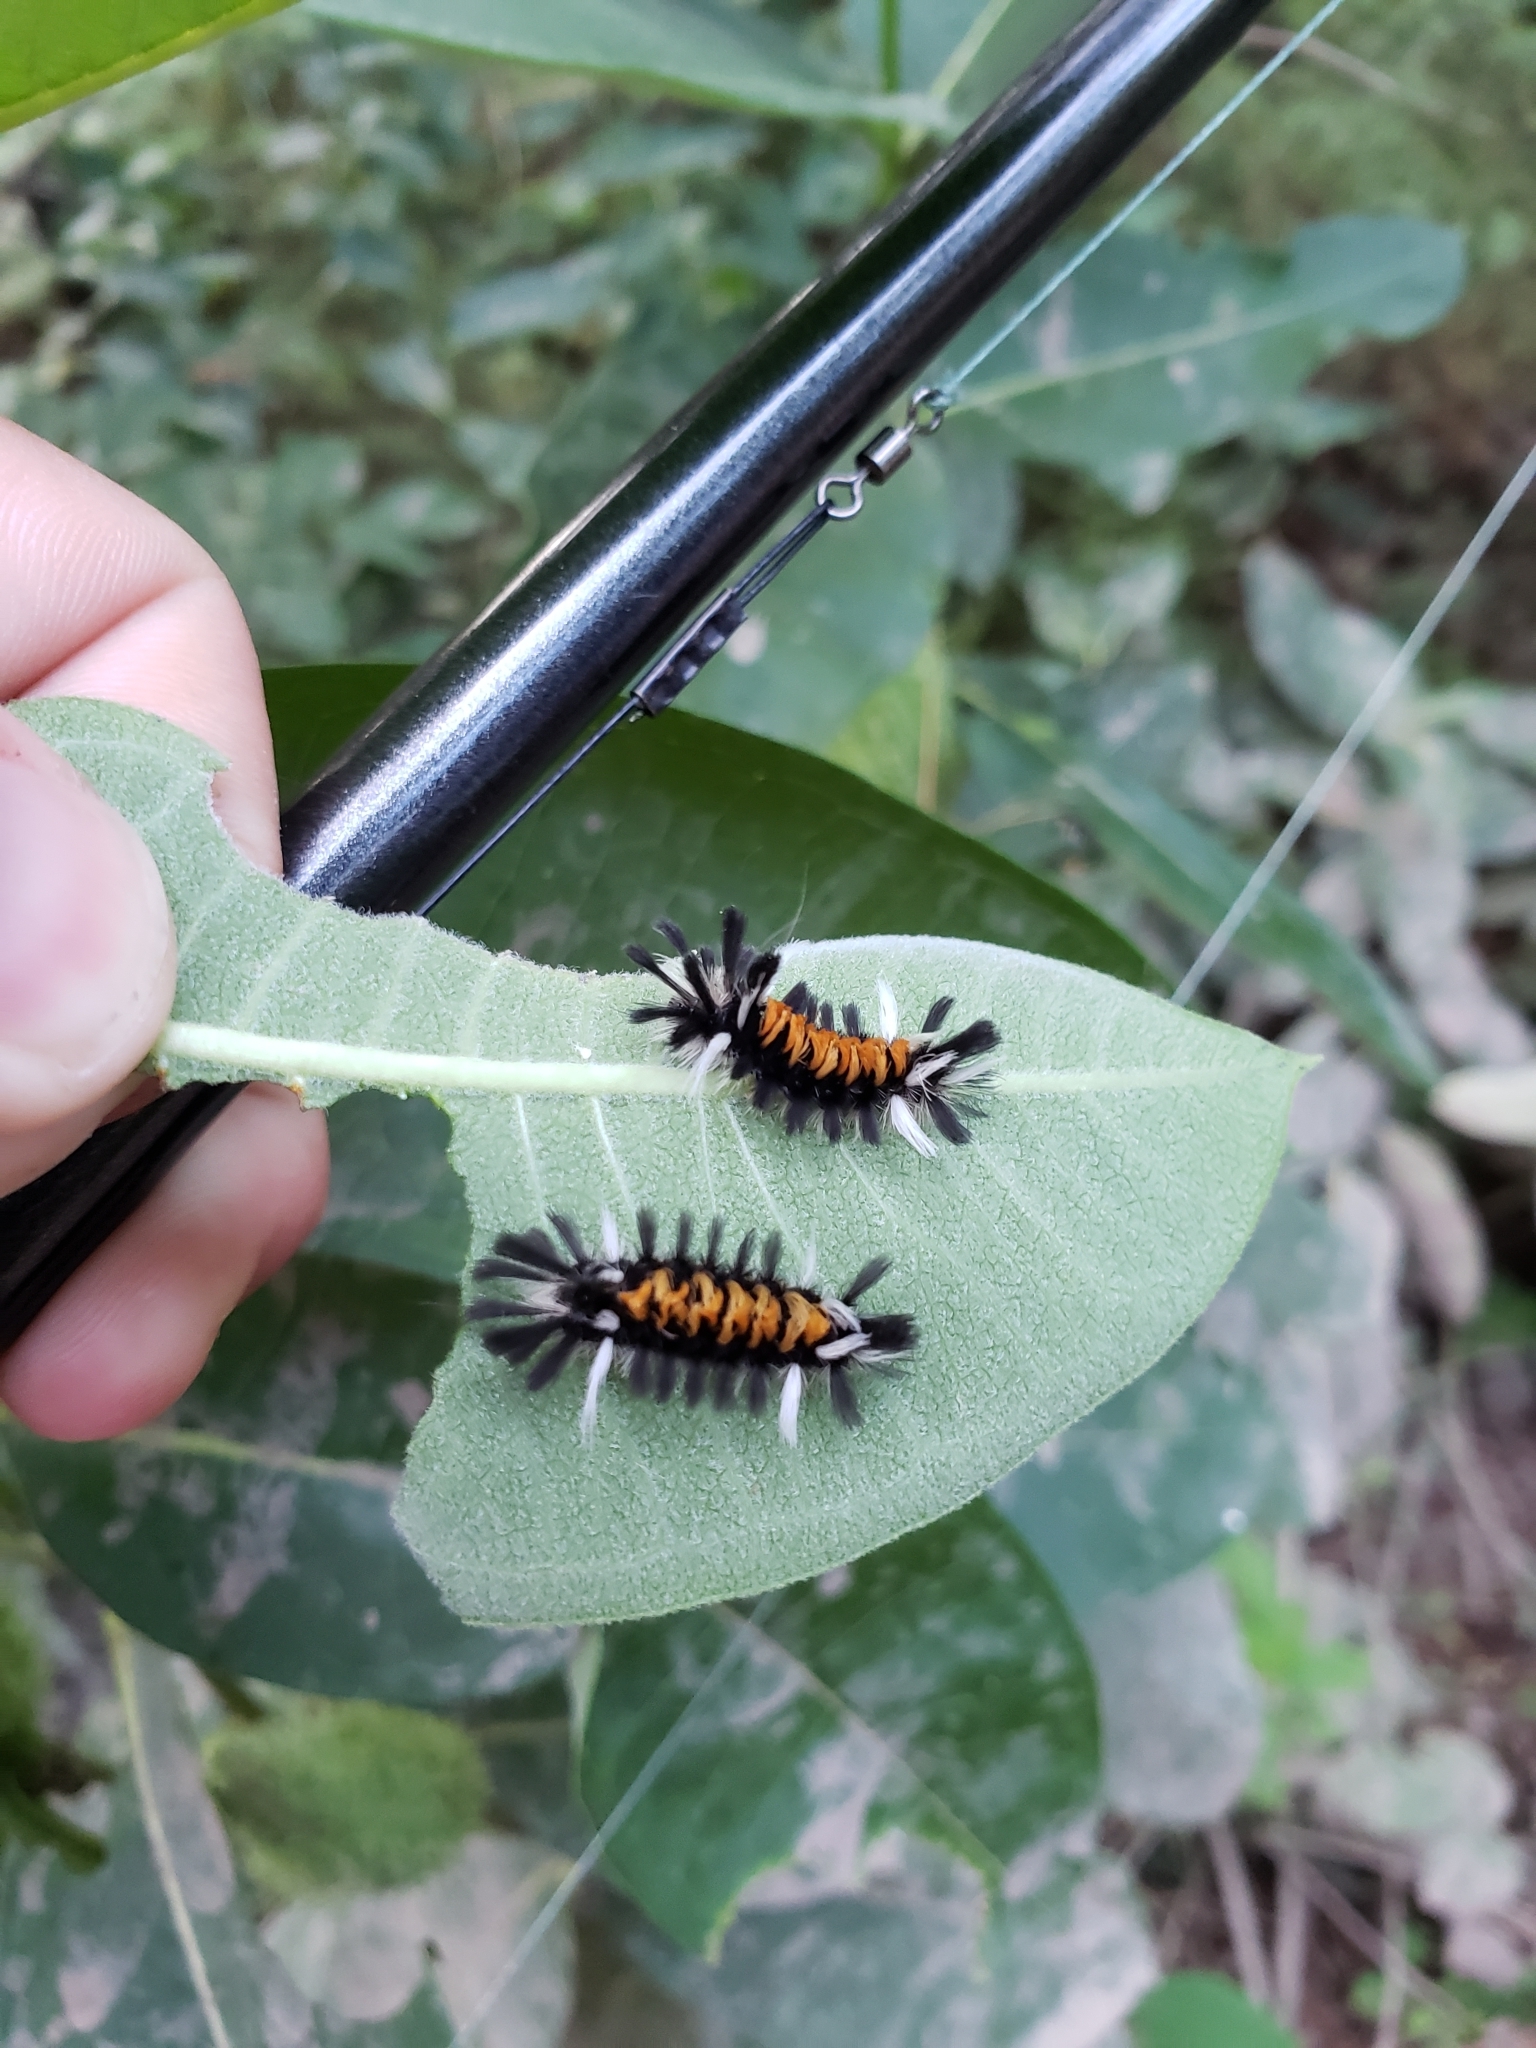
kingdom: Animalia
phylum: Arthropoda
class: Insecta
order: Lepidoptera
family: Erebidae
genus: Euchaetes
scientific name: Euchaetes egle
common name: Milkweed tussock moth
